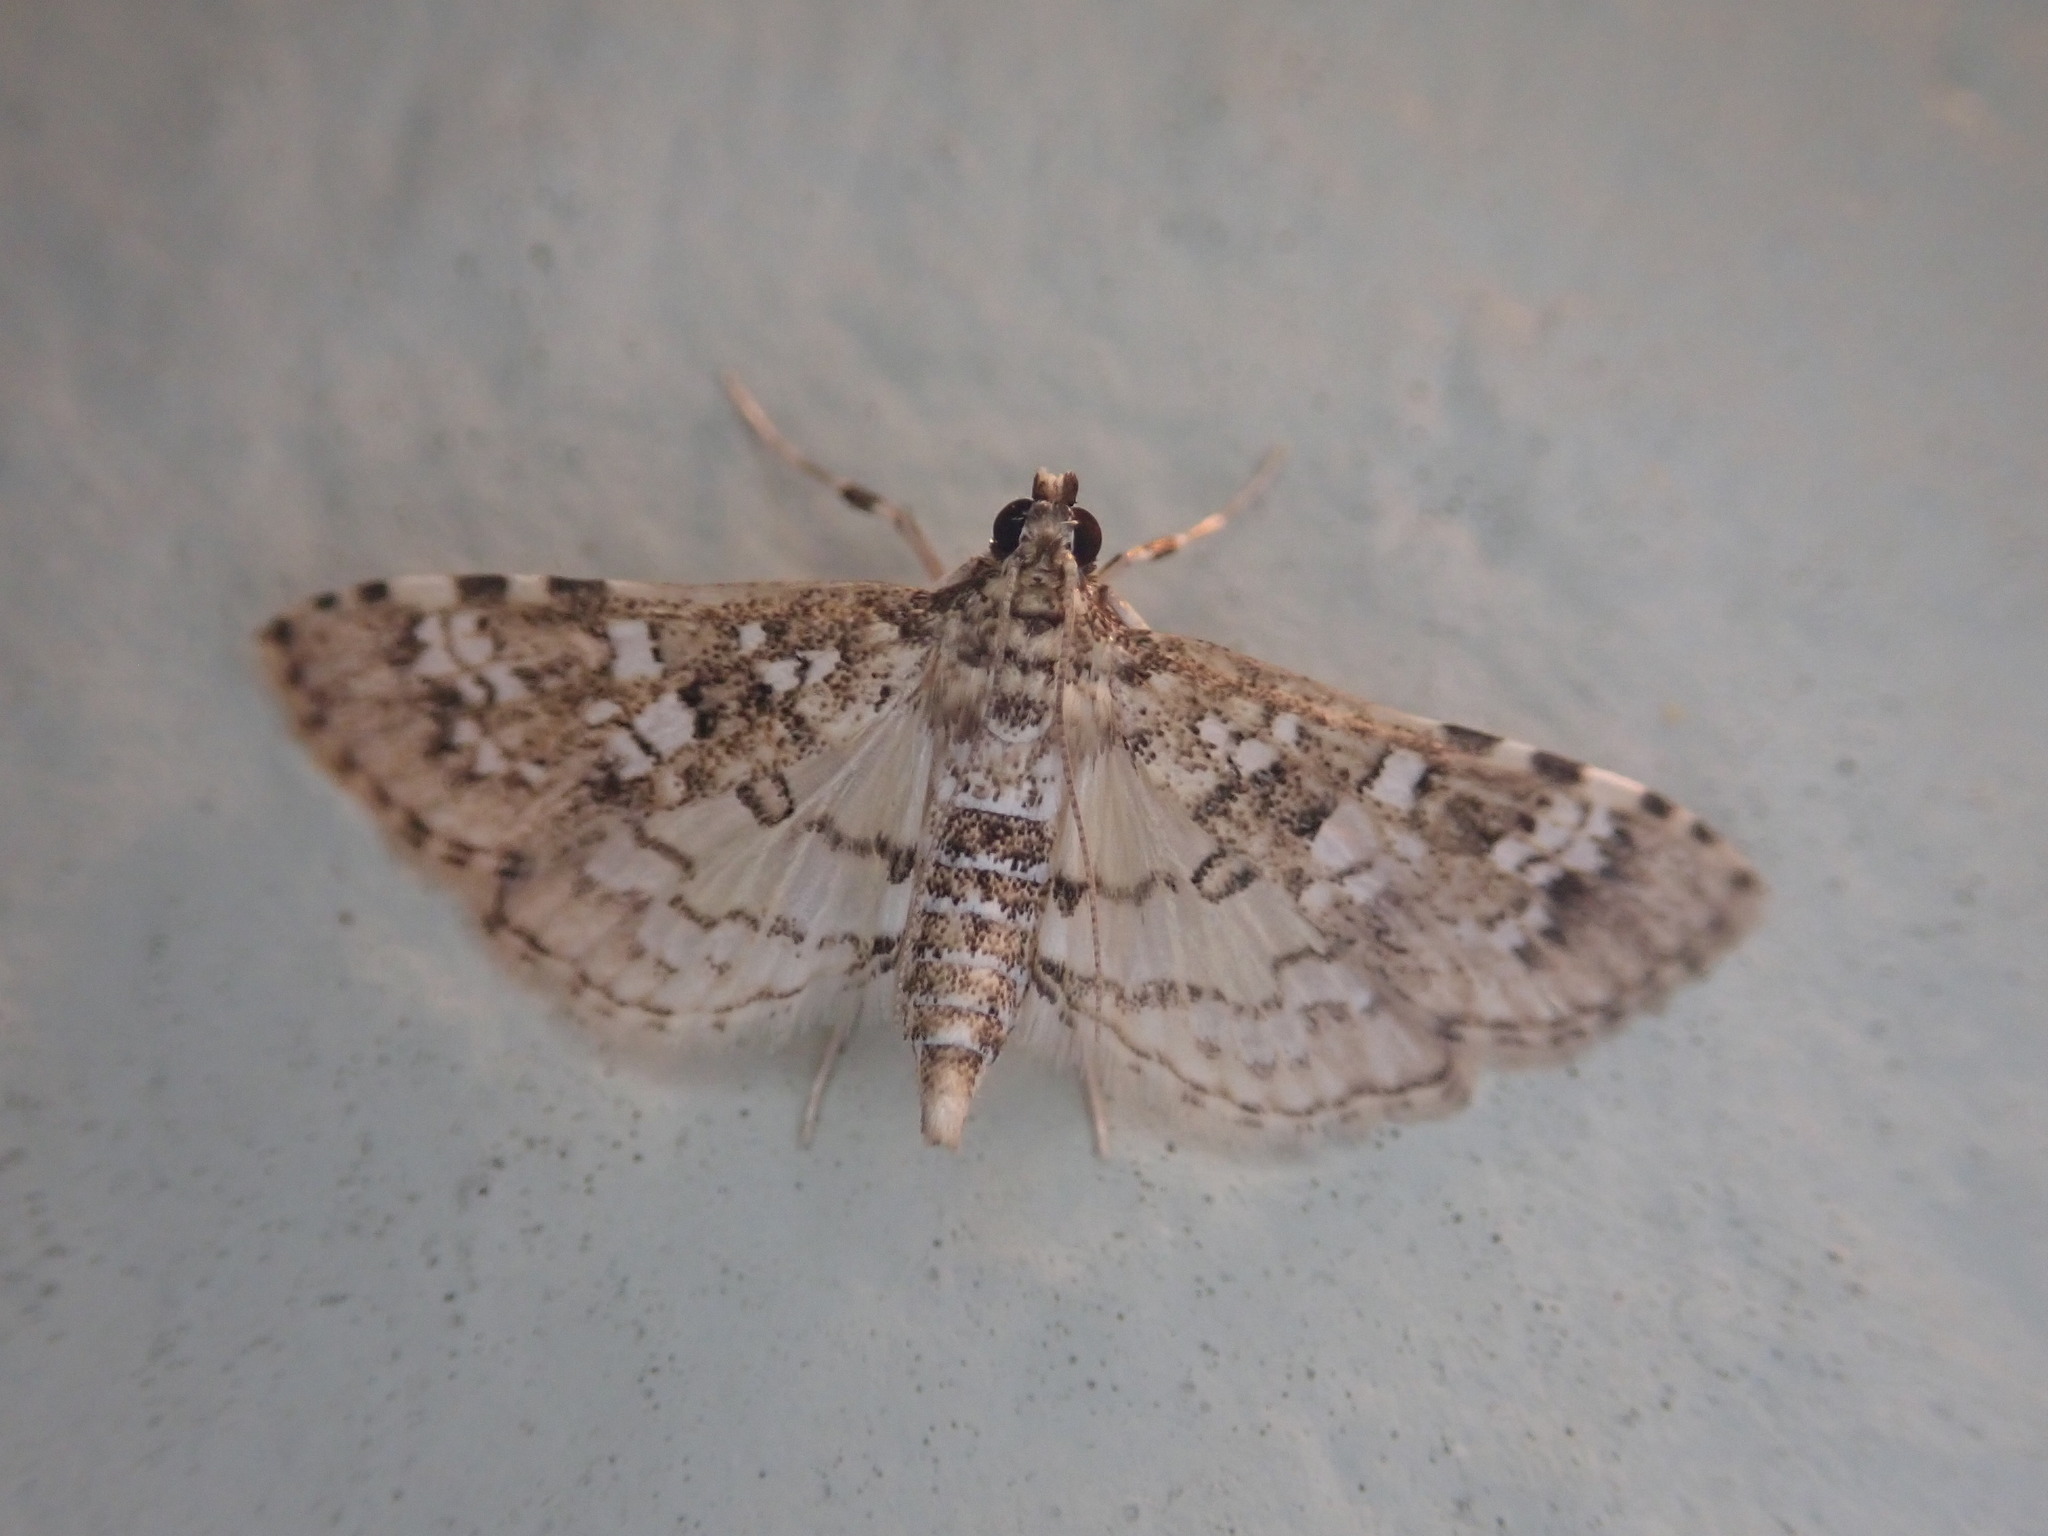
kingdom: Animalia
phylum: Arthropoda
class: Insecta
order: Lepidoptera
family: Crambidae
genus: Samea
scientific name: Samea multiplicalis
